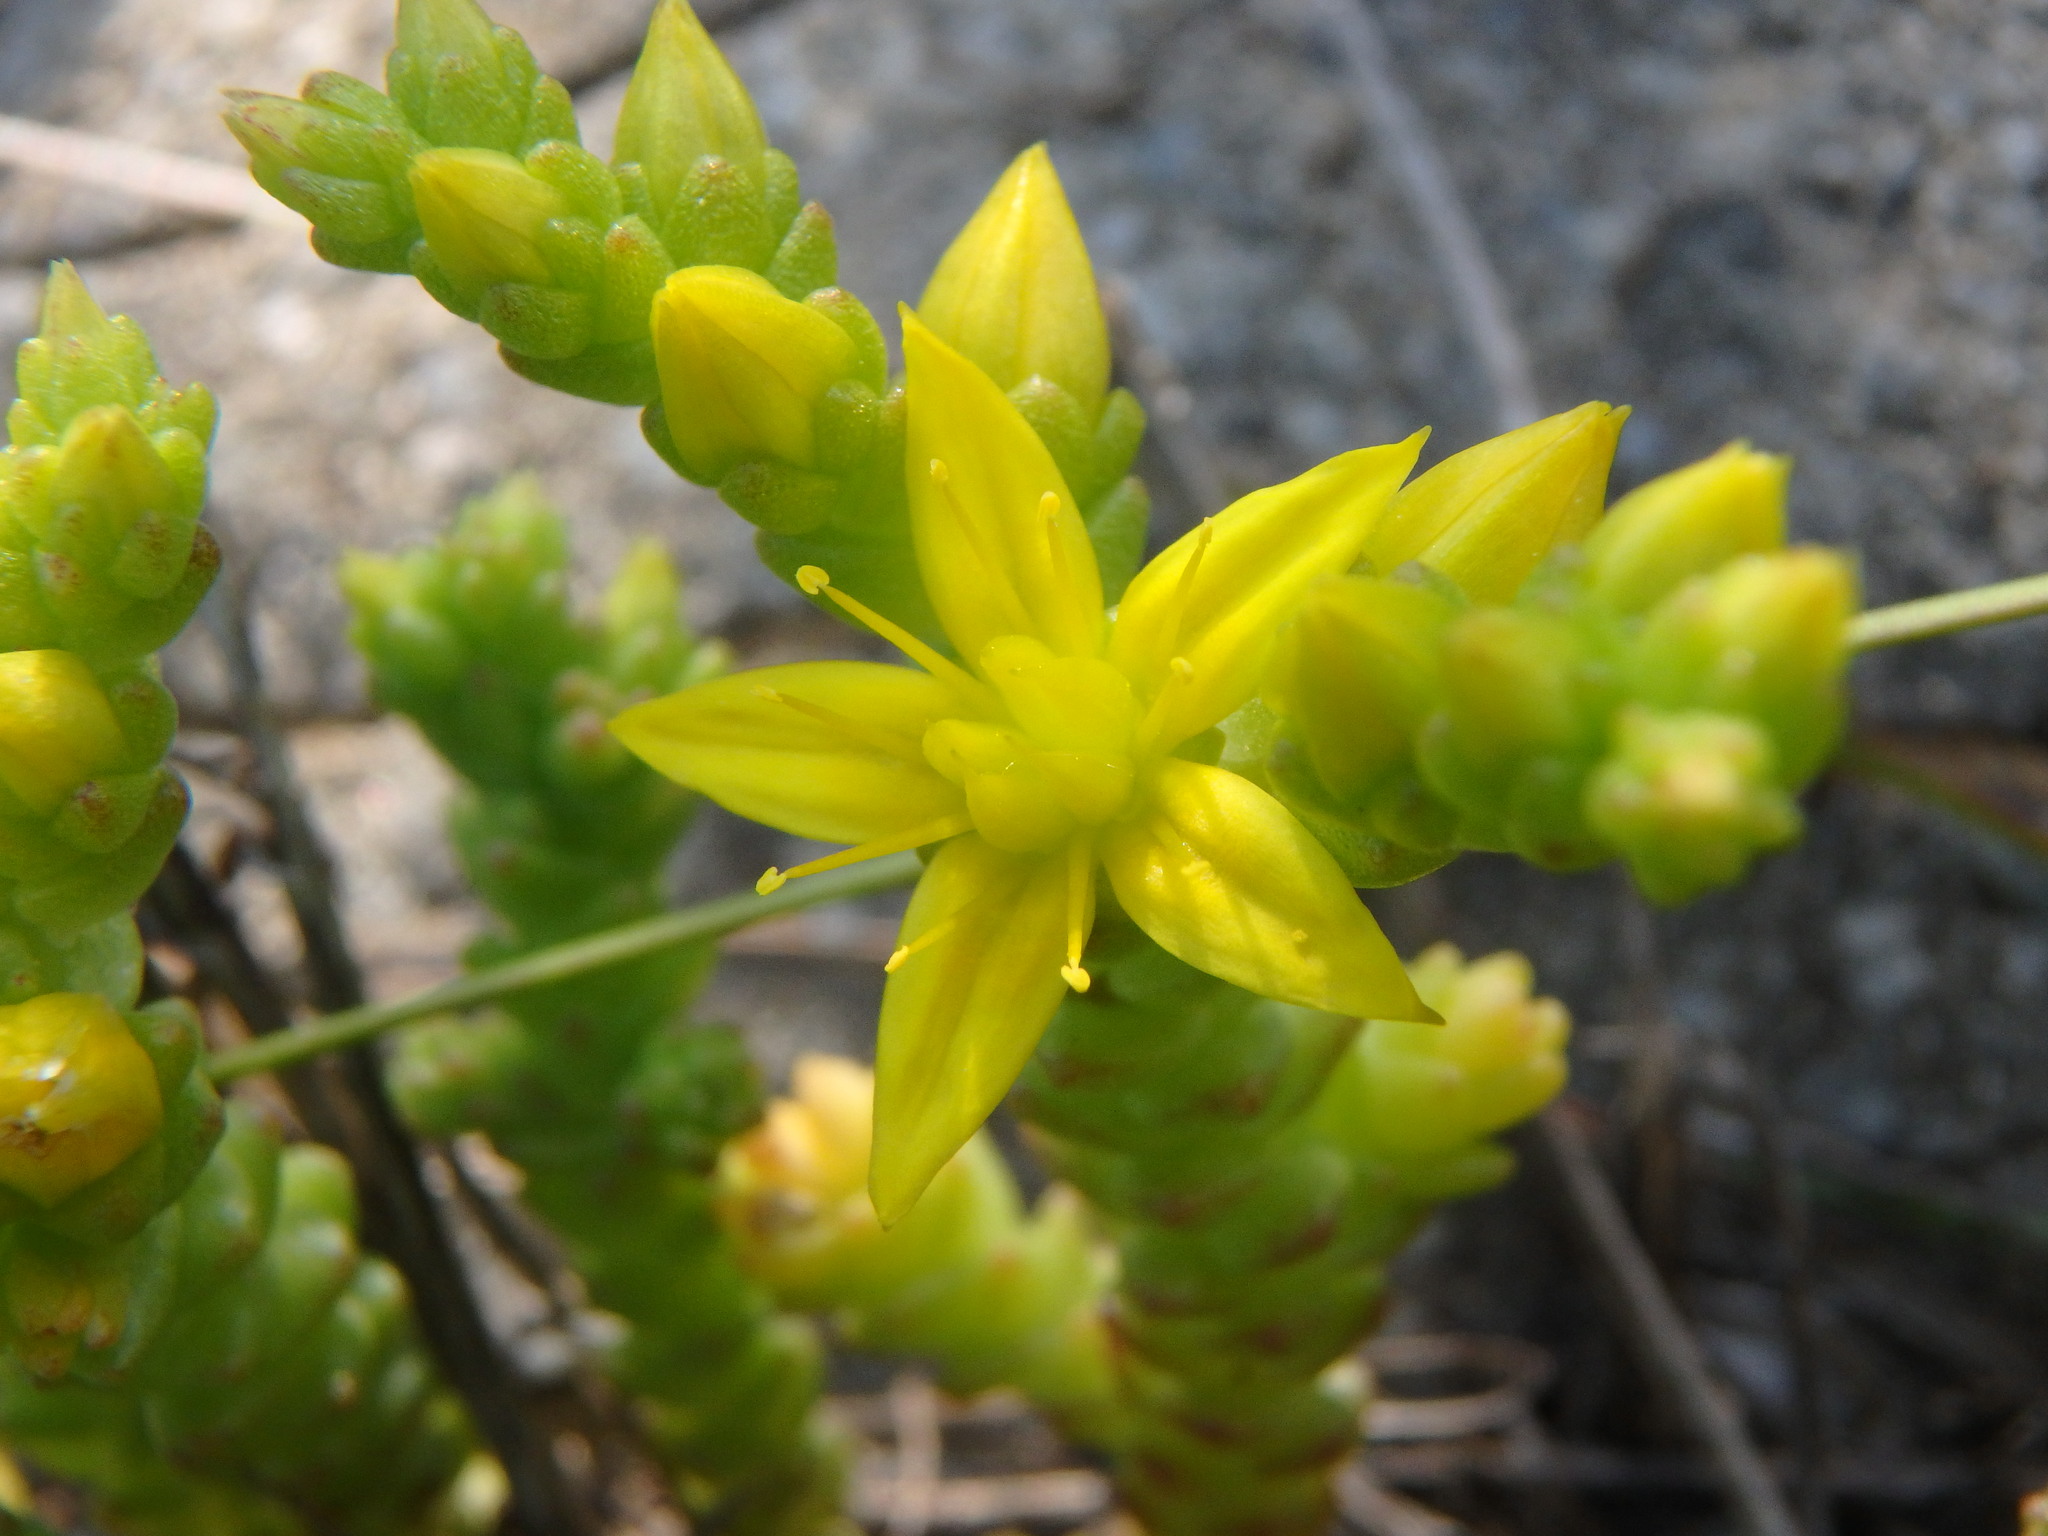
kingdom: Plantae
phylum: Tracheophyta
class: Magnoliopsida
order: Saxifragales
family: Crassulaceae
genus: Sedum
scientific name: Sedum acre
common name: Biting stonecrop
